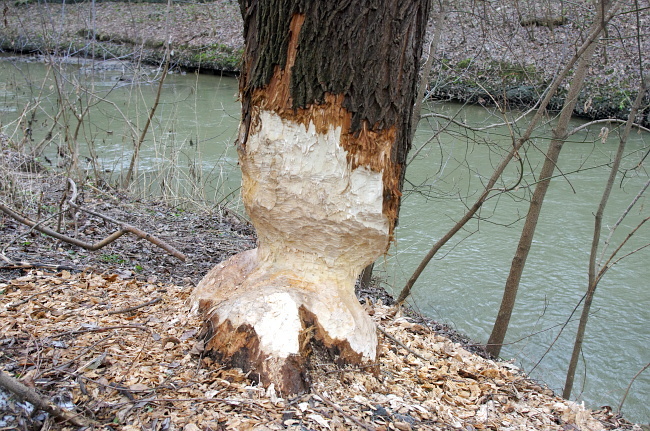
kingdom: Animalia
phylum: Chordata
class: Mammalia
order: Rodentia
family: Castoridae
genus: Castor
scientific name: Castor fiber
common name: Eurasian beaver
